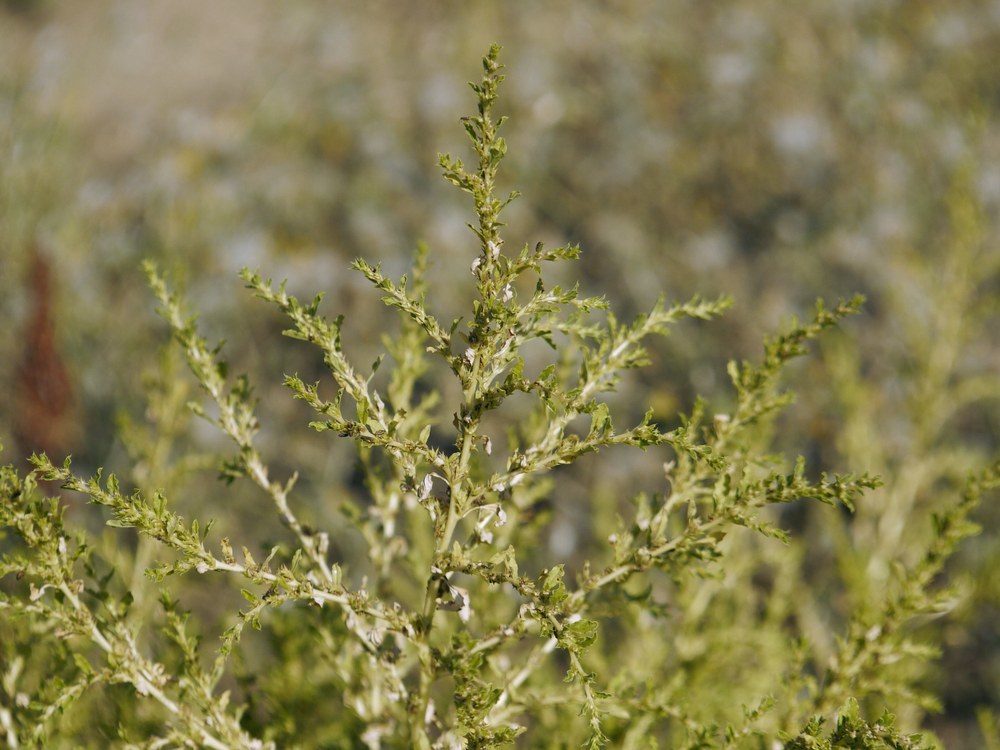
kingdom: Plantae
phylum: Tracheophyta
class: Magnoliopsida
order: Caryophyllales
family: Amaranthaceae
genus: Amaranthus
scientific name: Amaranthus albus
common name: White pigweed
